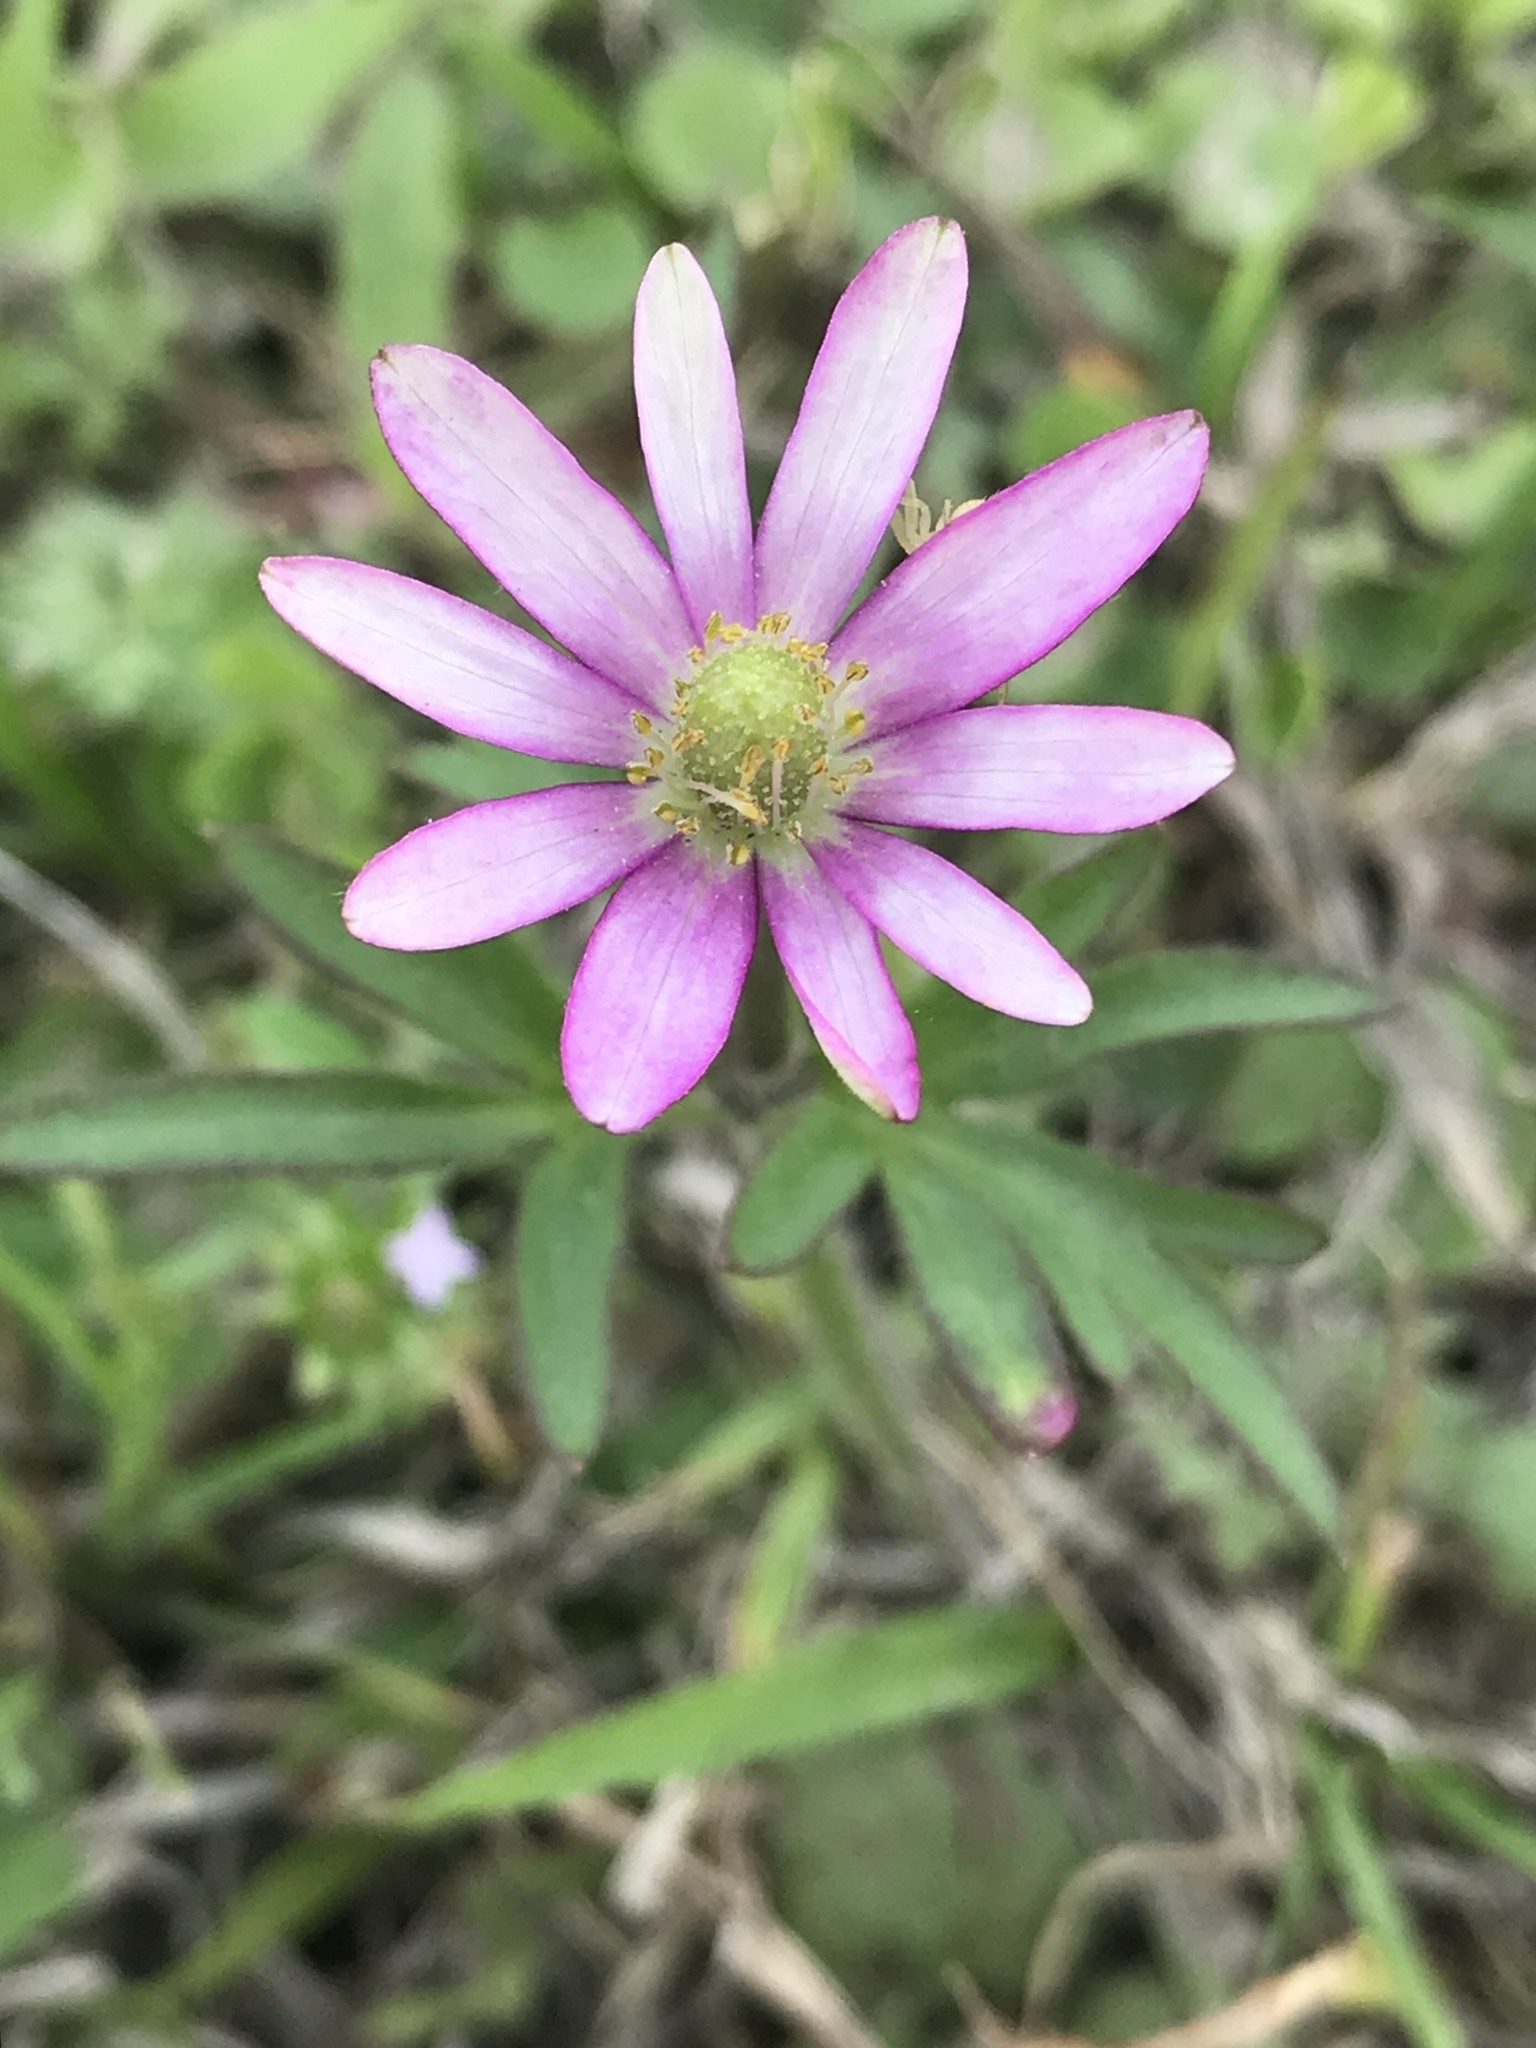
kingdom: Plantae
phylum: Tracheophyta
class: Magnoliopsida
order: Ranunculales
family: Ranunculaceae
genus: Anemone
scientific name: Anemone berlandieri
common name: Ten-petal anemone
